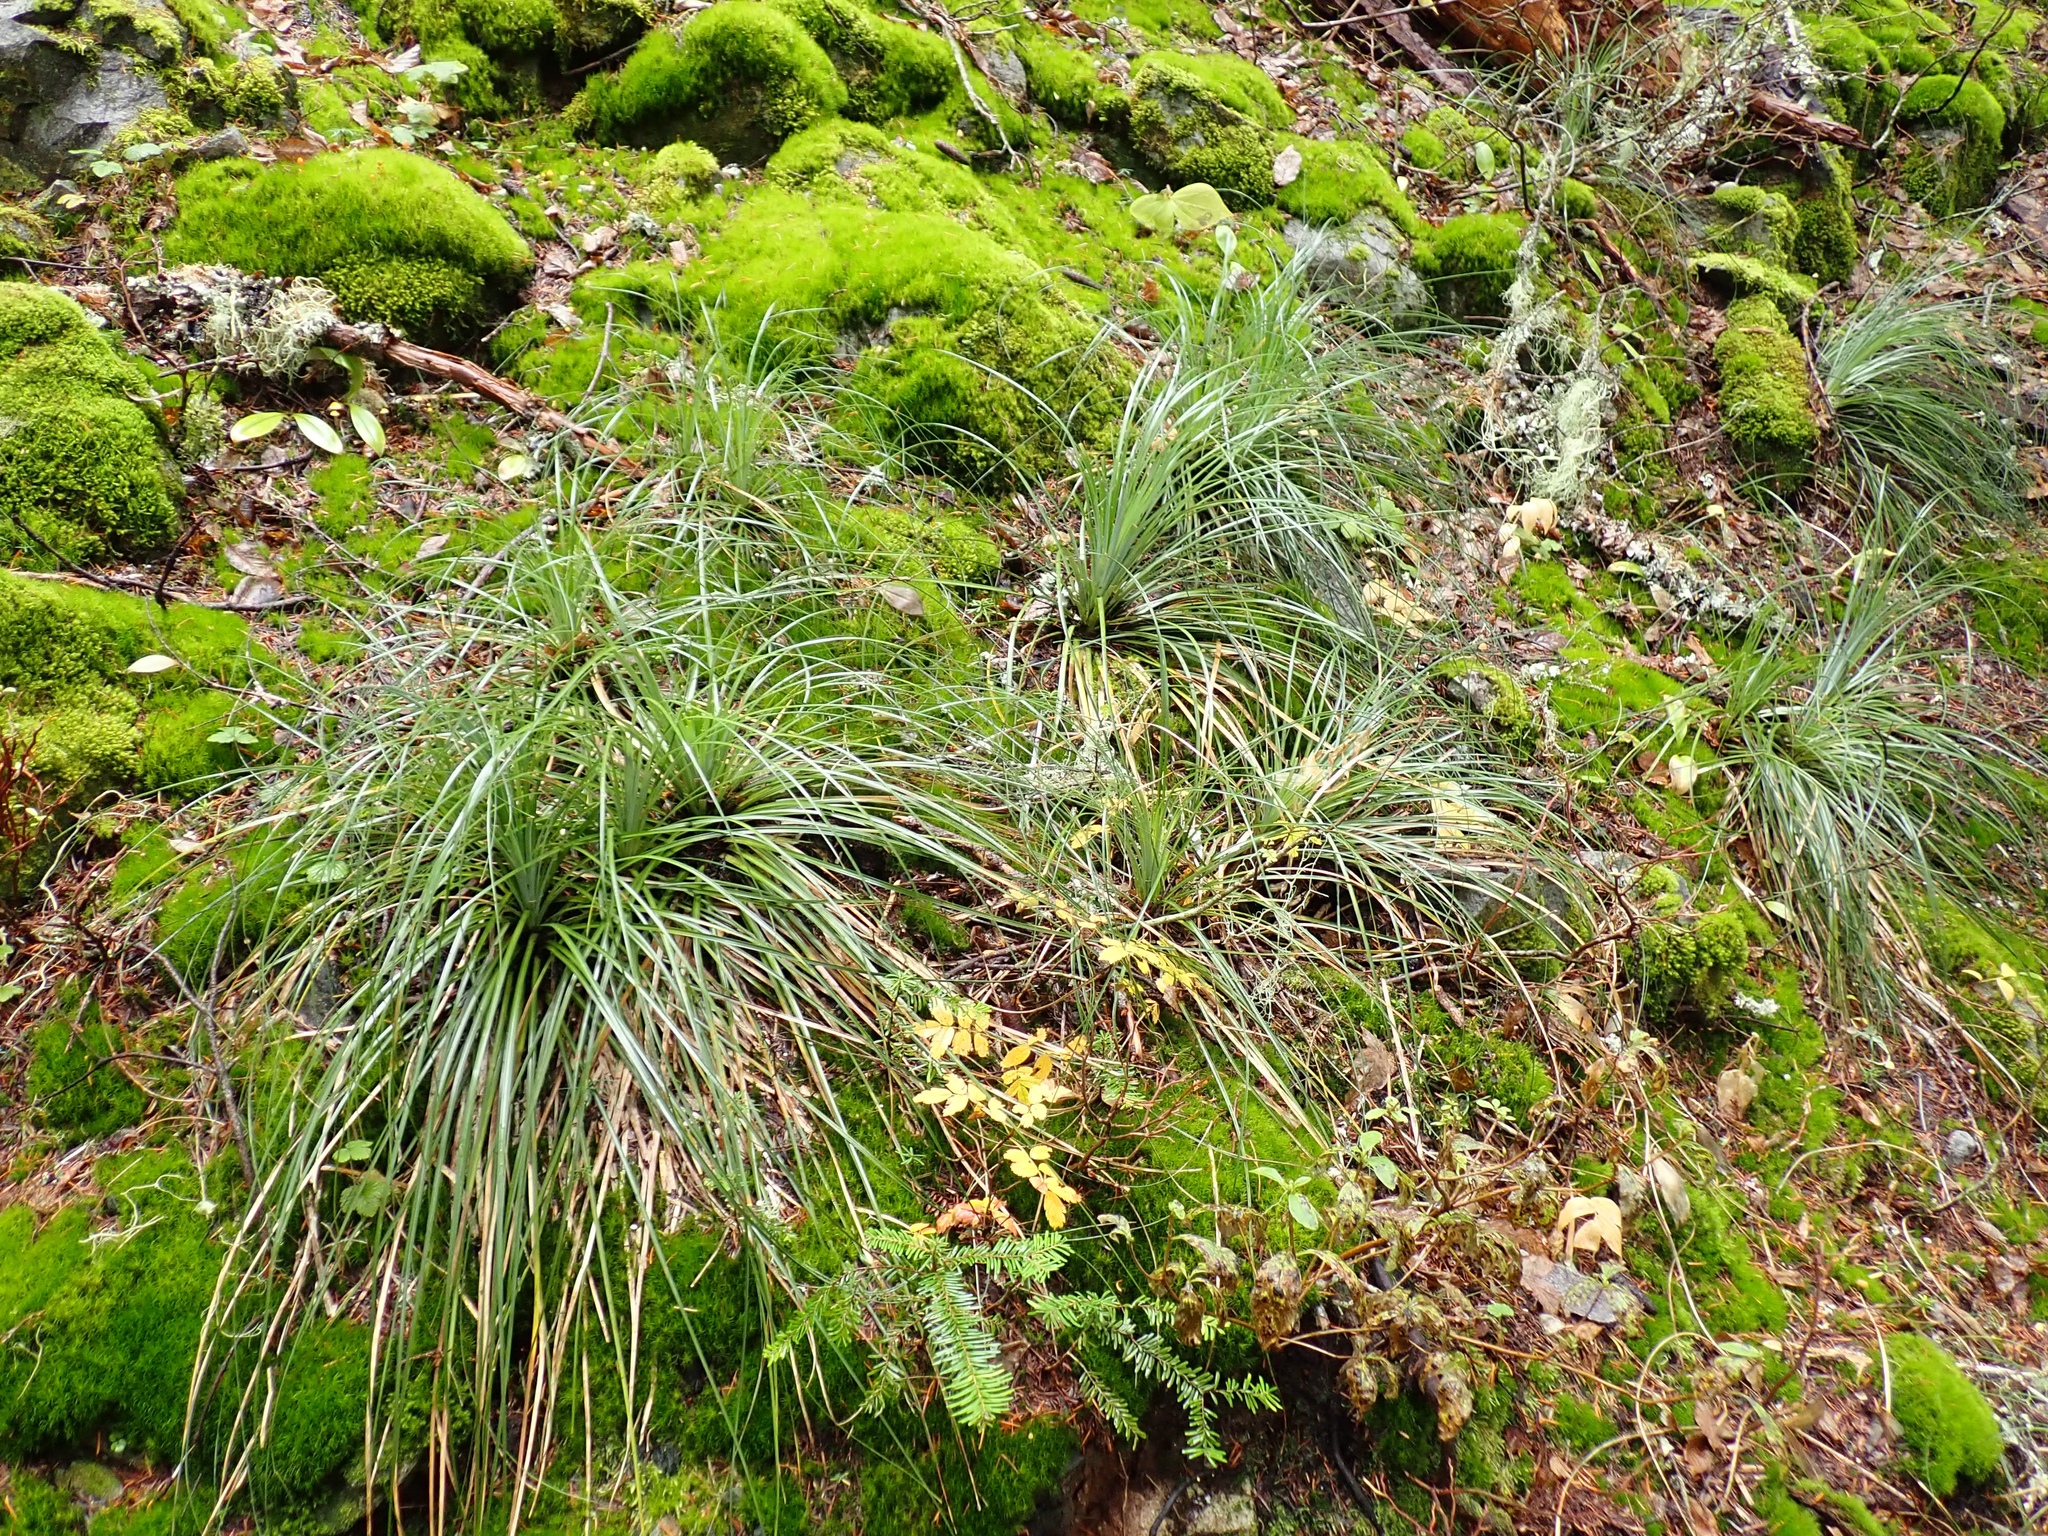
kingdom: Plantae
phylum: Tracheophyta
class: Liliopsida
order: Liliales
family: Melanthiaceae
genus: Xerophyllum
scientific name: Xerophyllum tenax
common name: Bear-grass
